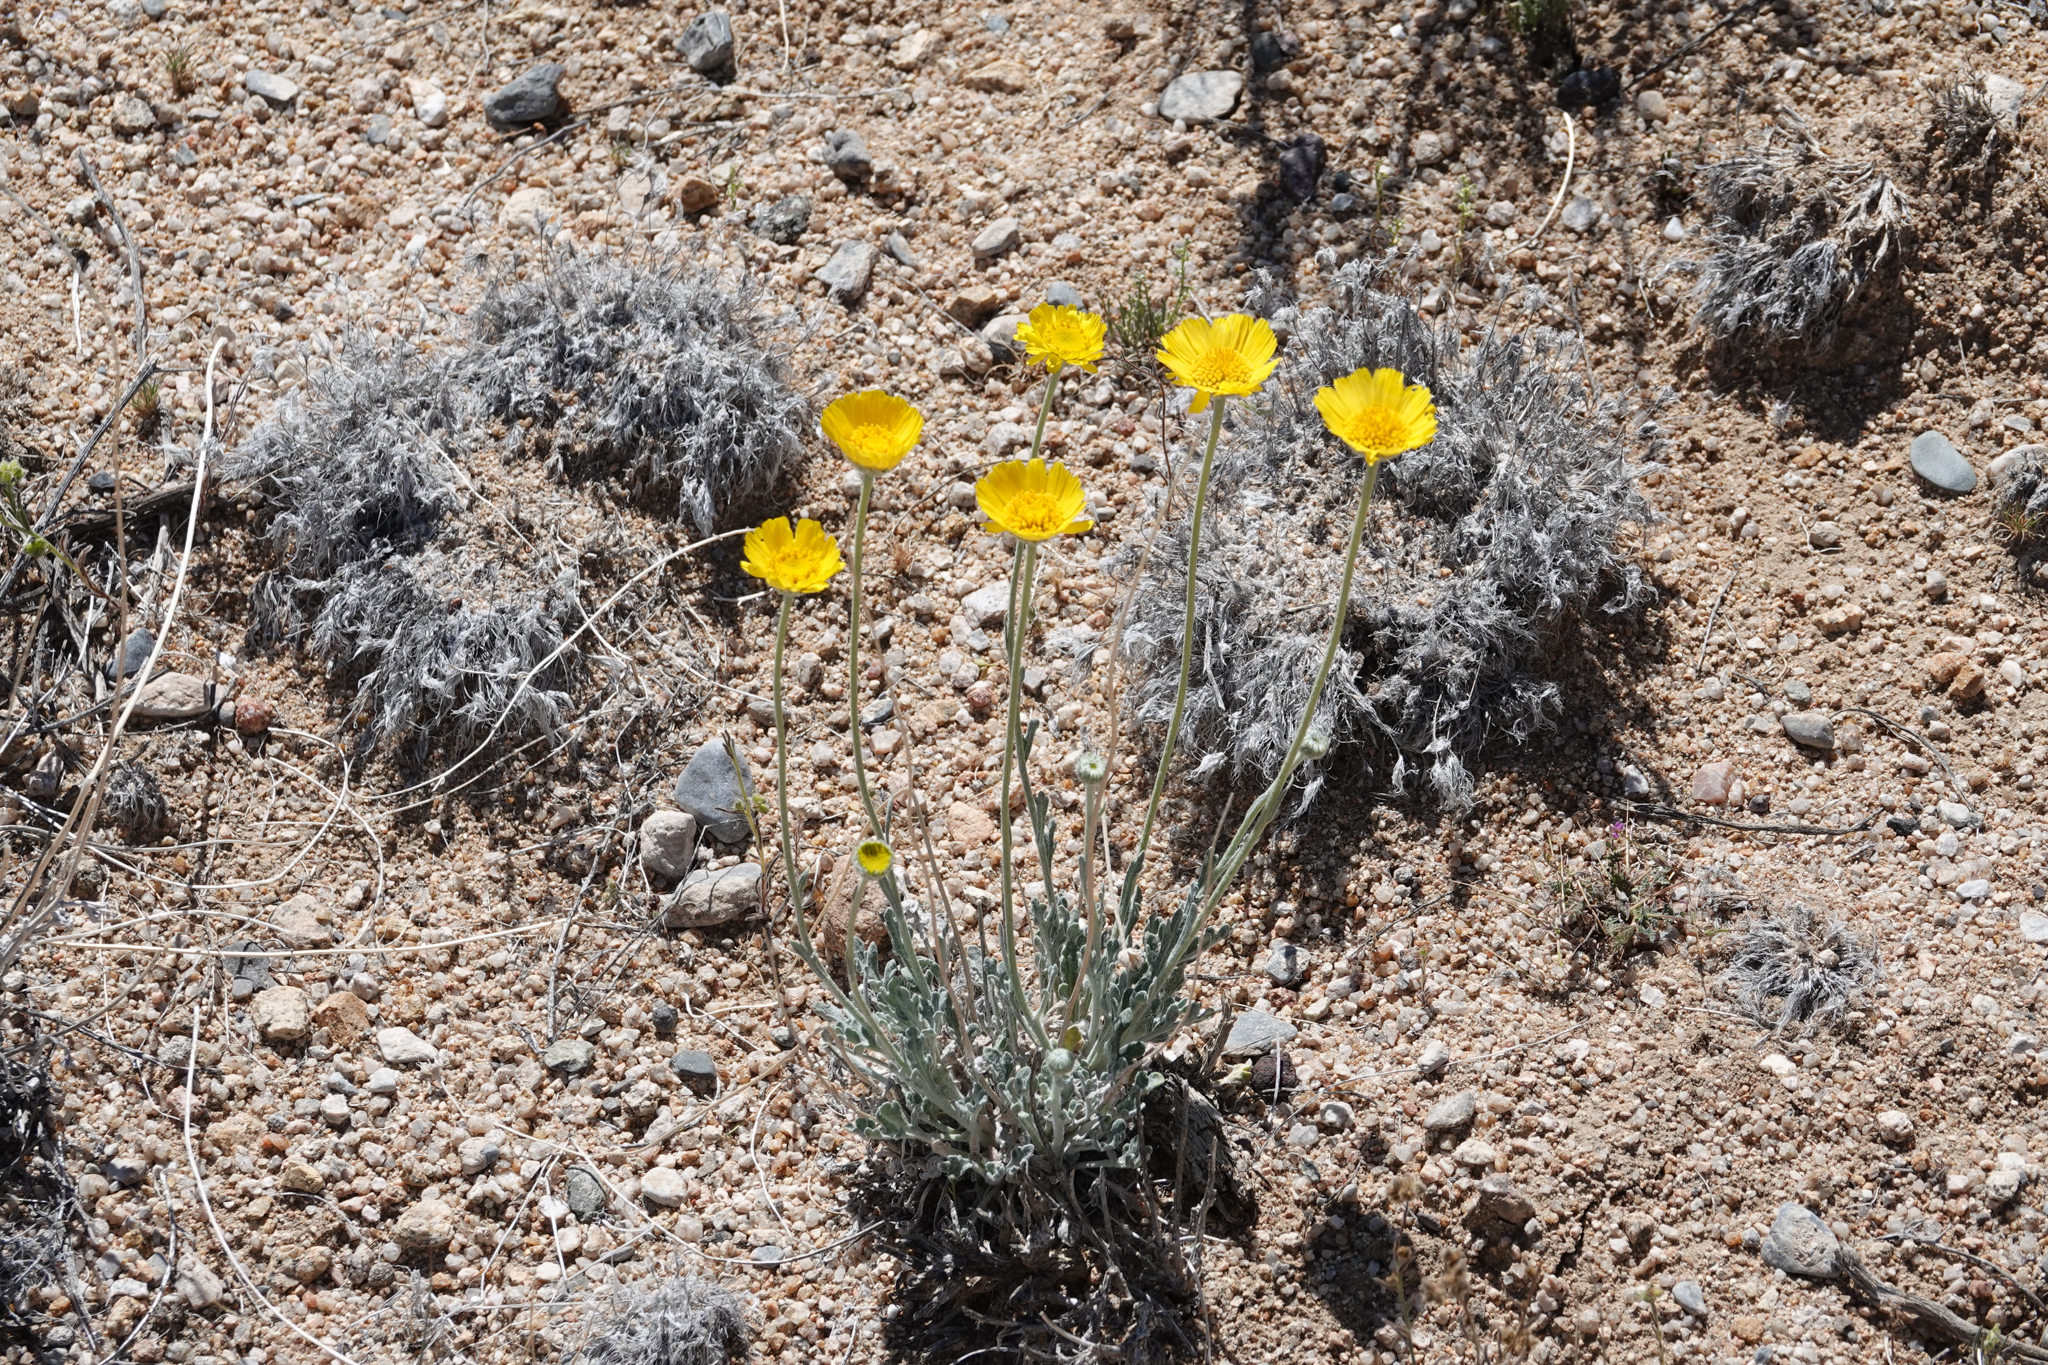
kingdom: Plantae
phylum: Tracheophyta
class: Magnoliopsida
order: Asterales
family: Asteraceae
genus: Baileya
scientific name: Baileya multiradiata
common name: Desert-marigold
